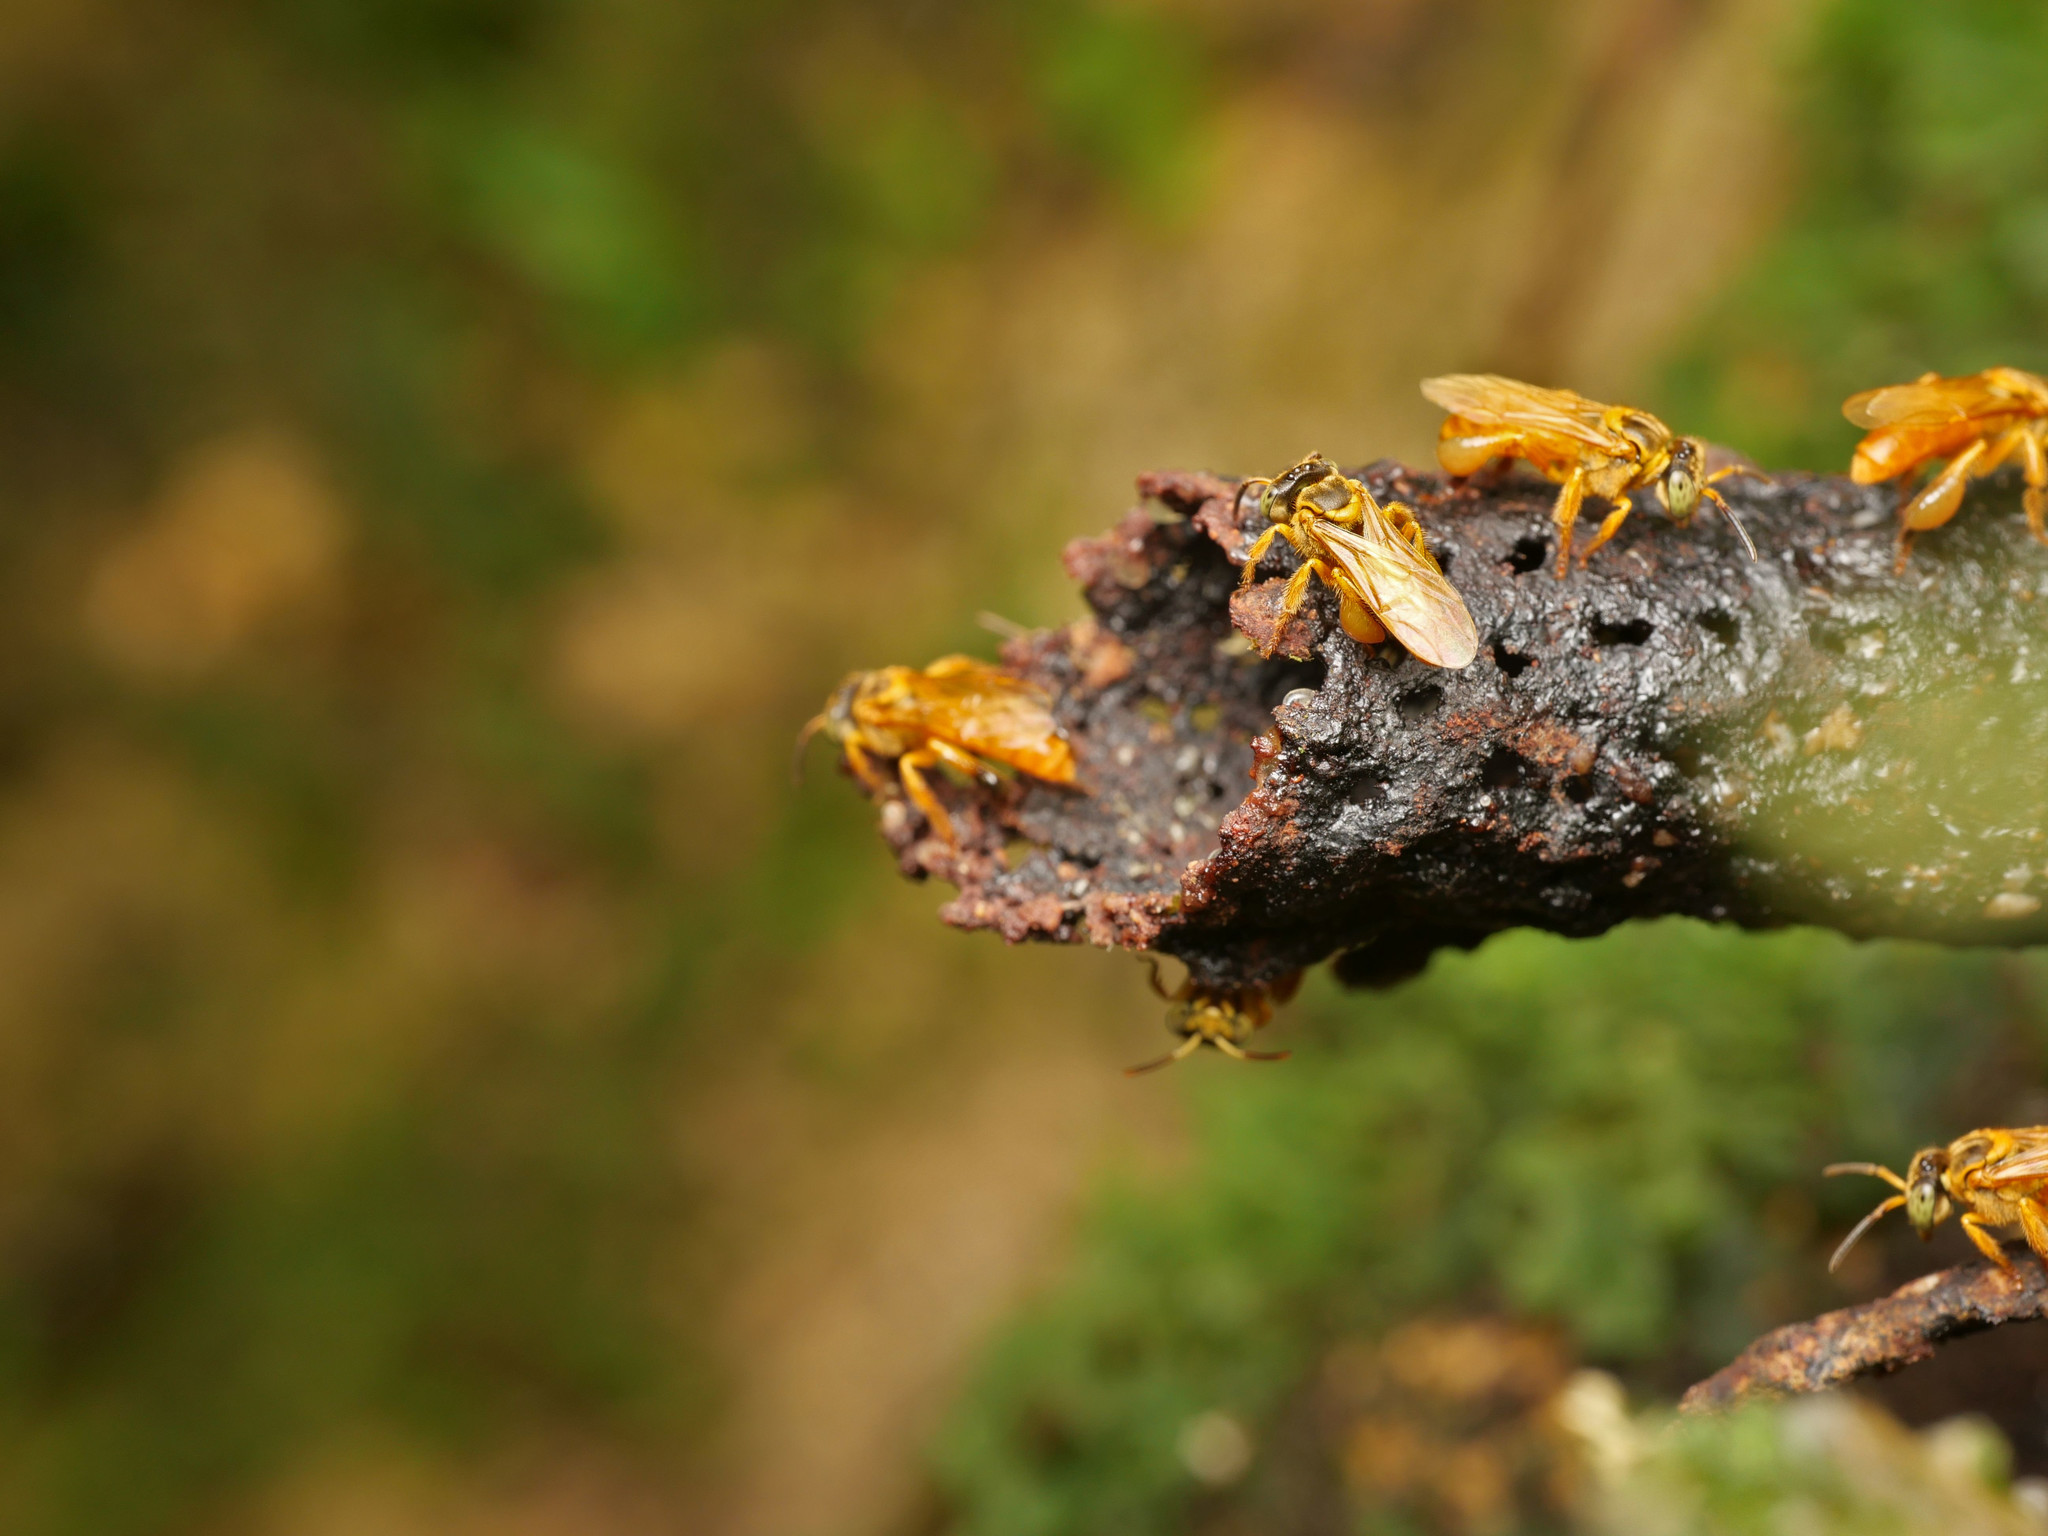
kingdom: Animalia
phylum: Arthropoda
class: Insecta
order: Hymenoptera
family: Apidae
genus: Tetragona
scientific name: Tetragona ziegleri
